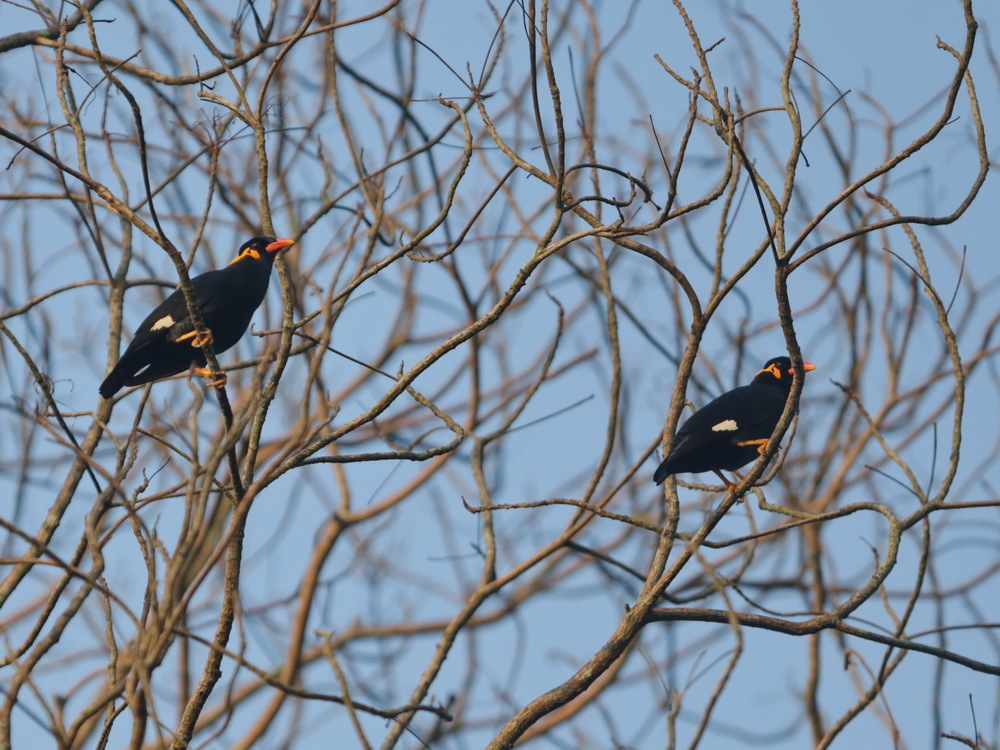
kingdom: Animalia
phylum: Chordata
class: Aves
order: Passeriformes
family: Sturnidae
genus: Gracula
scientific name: Gracula religiosa
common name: Common hill myna
